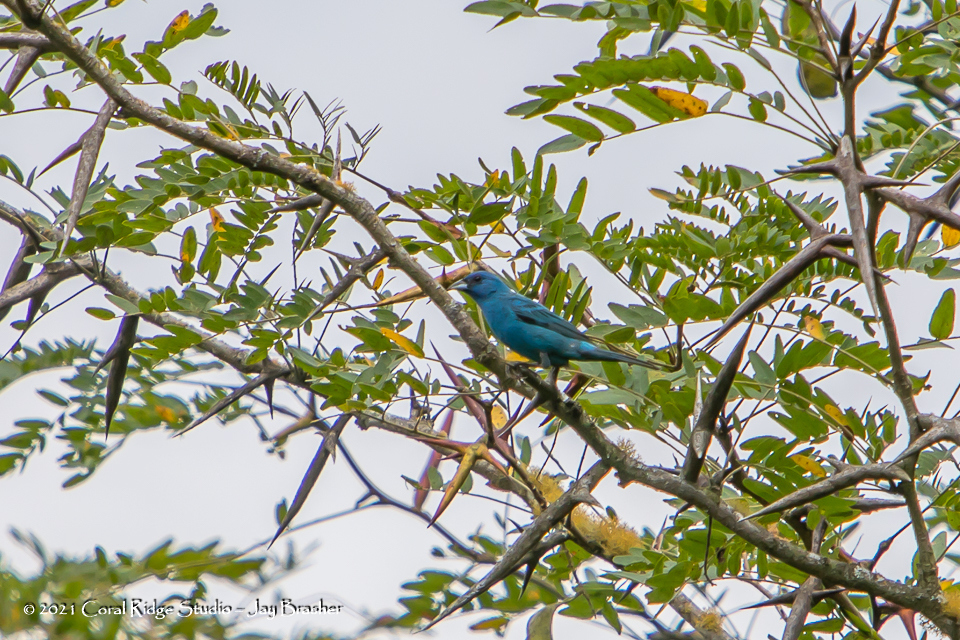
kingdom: Animalia
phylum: Chordata
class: Aves
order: Passeriformes
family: Cardinalidae
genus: Passerina
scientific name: Passerina cyanea
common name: Indigo bunting
